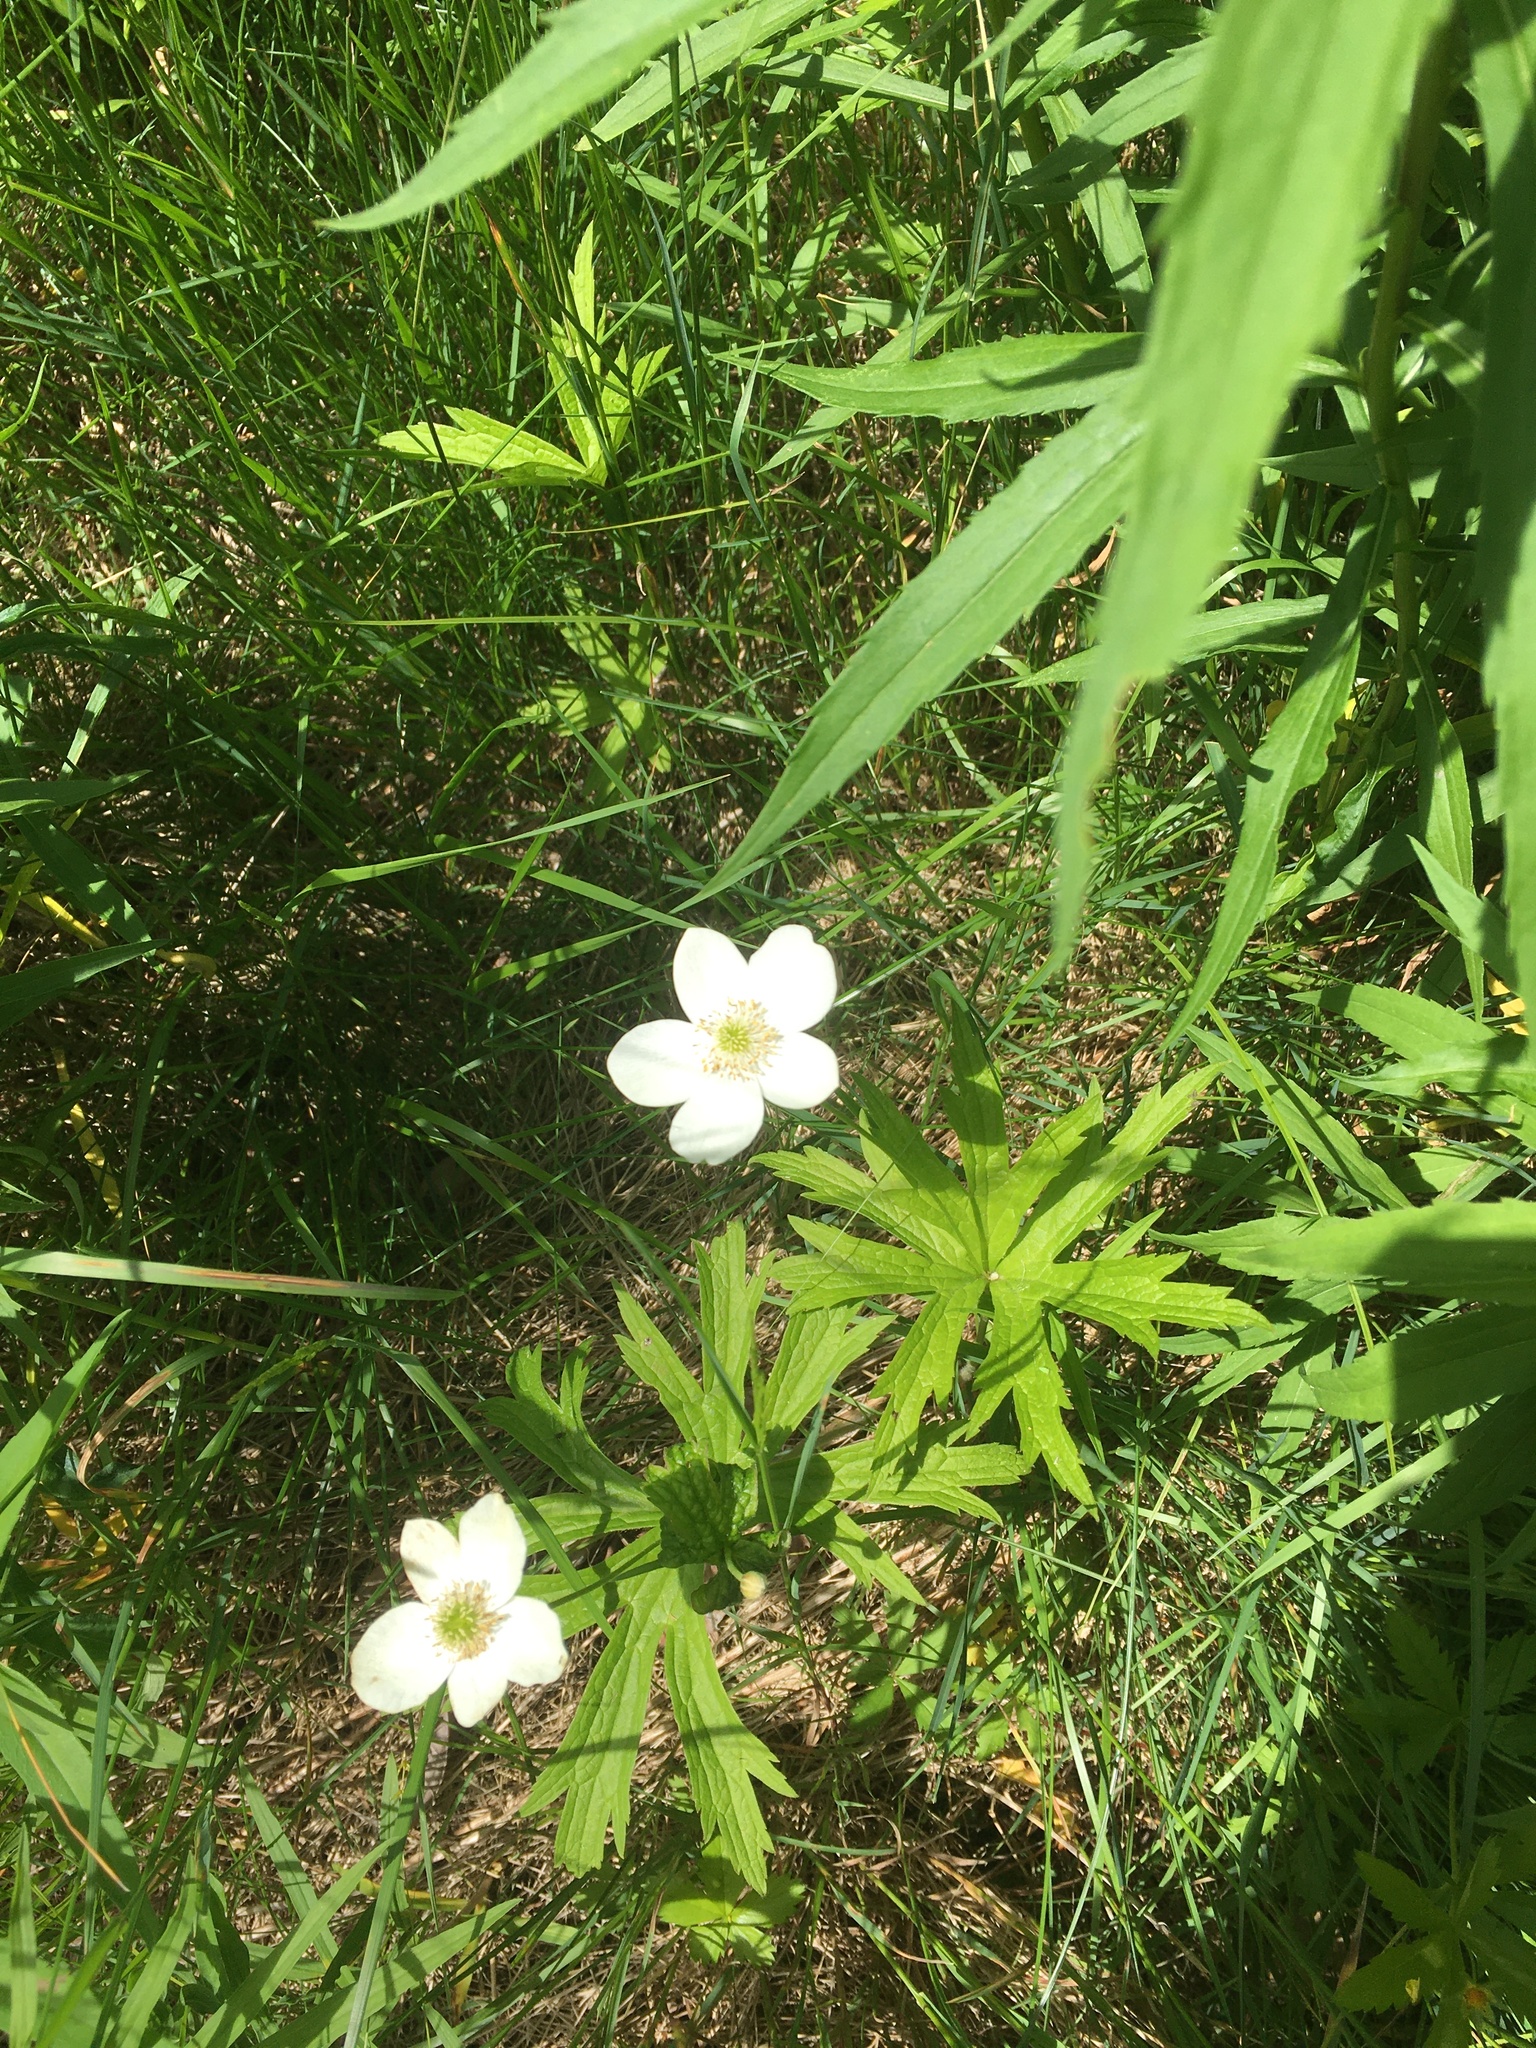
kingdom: Plantae
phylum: Tracheophyta
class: Magnoliopsida
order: Ranunculales
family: Ranunculaceae
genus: Anemonastrum
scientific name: Anemonastrum canadense
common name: Canada anemone
